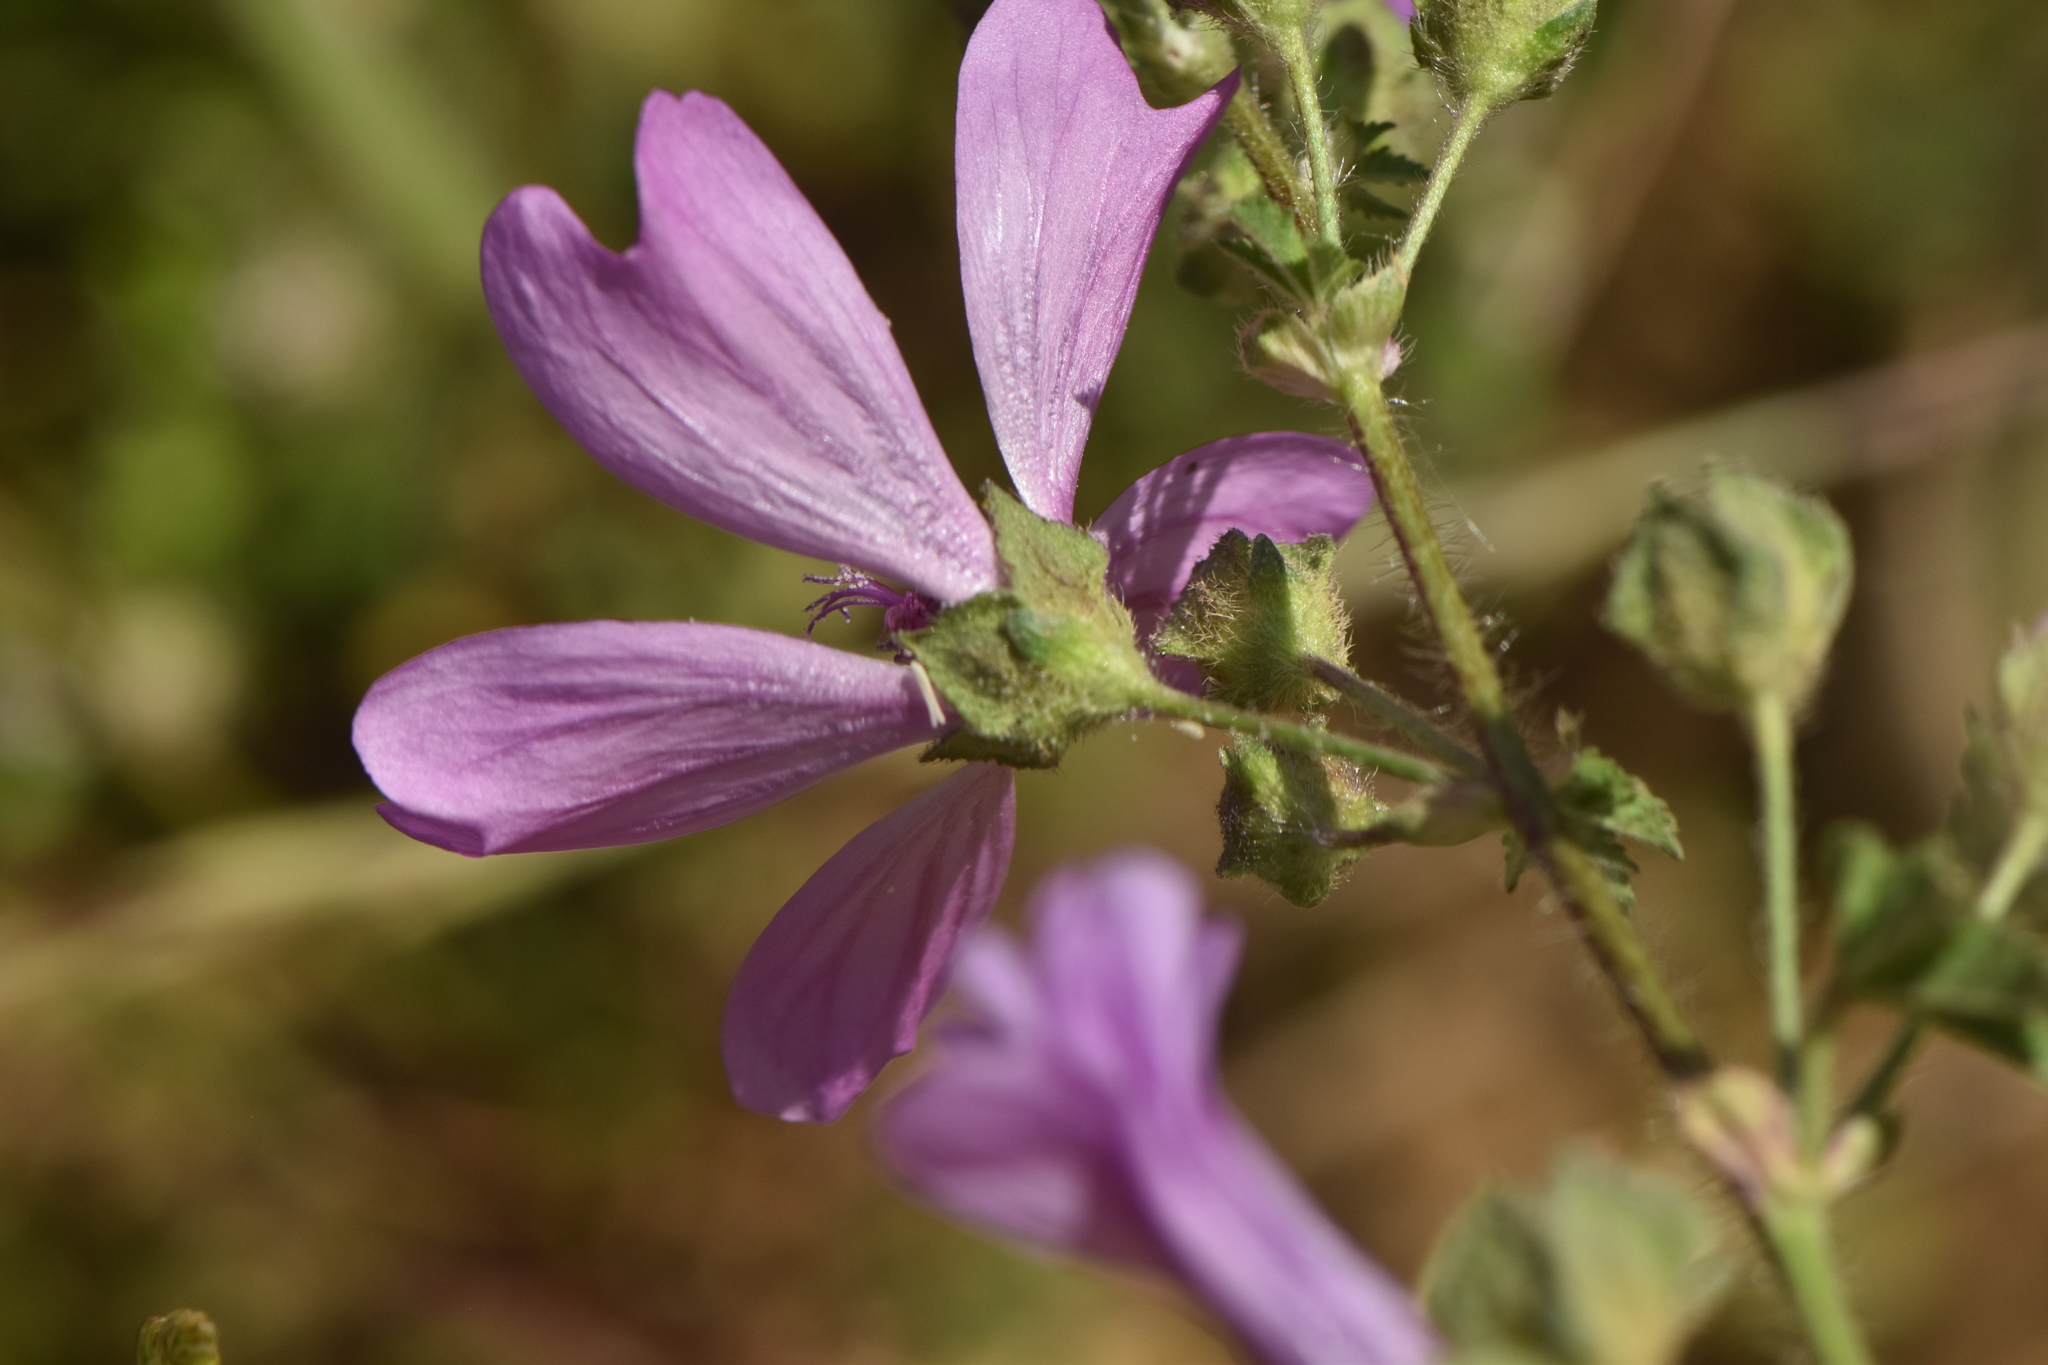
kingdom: Plantae
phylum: Tracheophyta
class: Magnoliopsida
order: Malvales
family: Malvaceae
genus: Malva
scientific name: Malva sylvestris
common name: Common mallow
